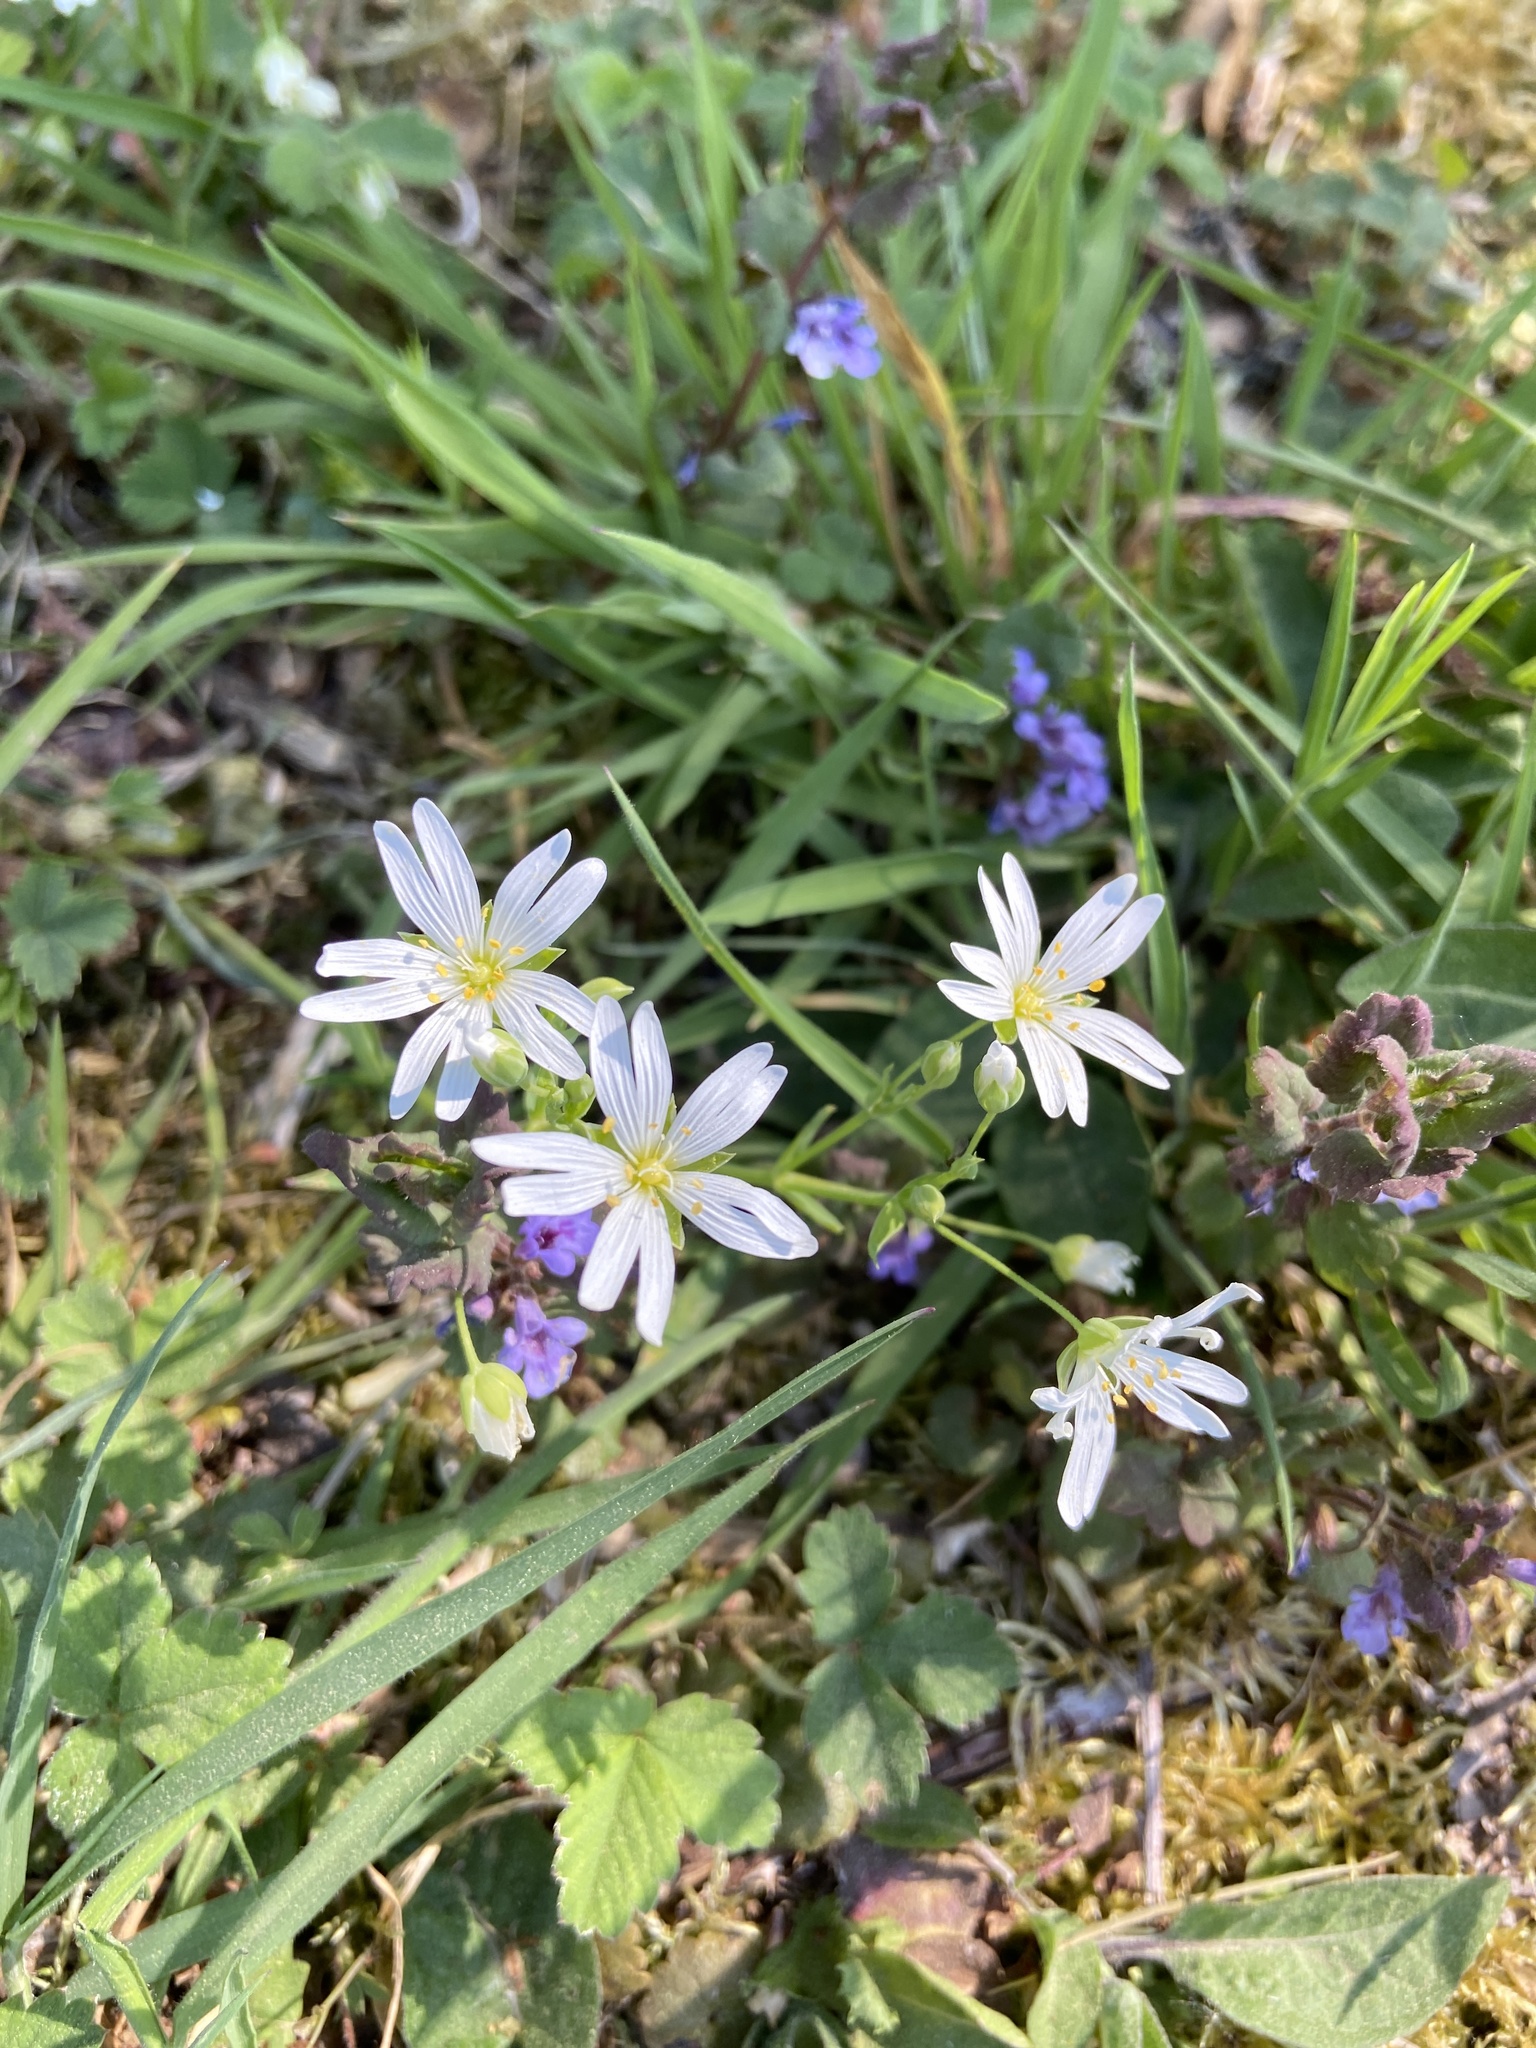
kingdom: Plantae
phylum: Tracheophyta
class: Magnoliopsida
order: Caryophyllales
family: Caryophyllaceae
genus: Rabelera
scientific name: Rabelera holostea
